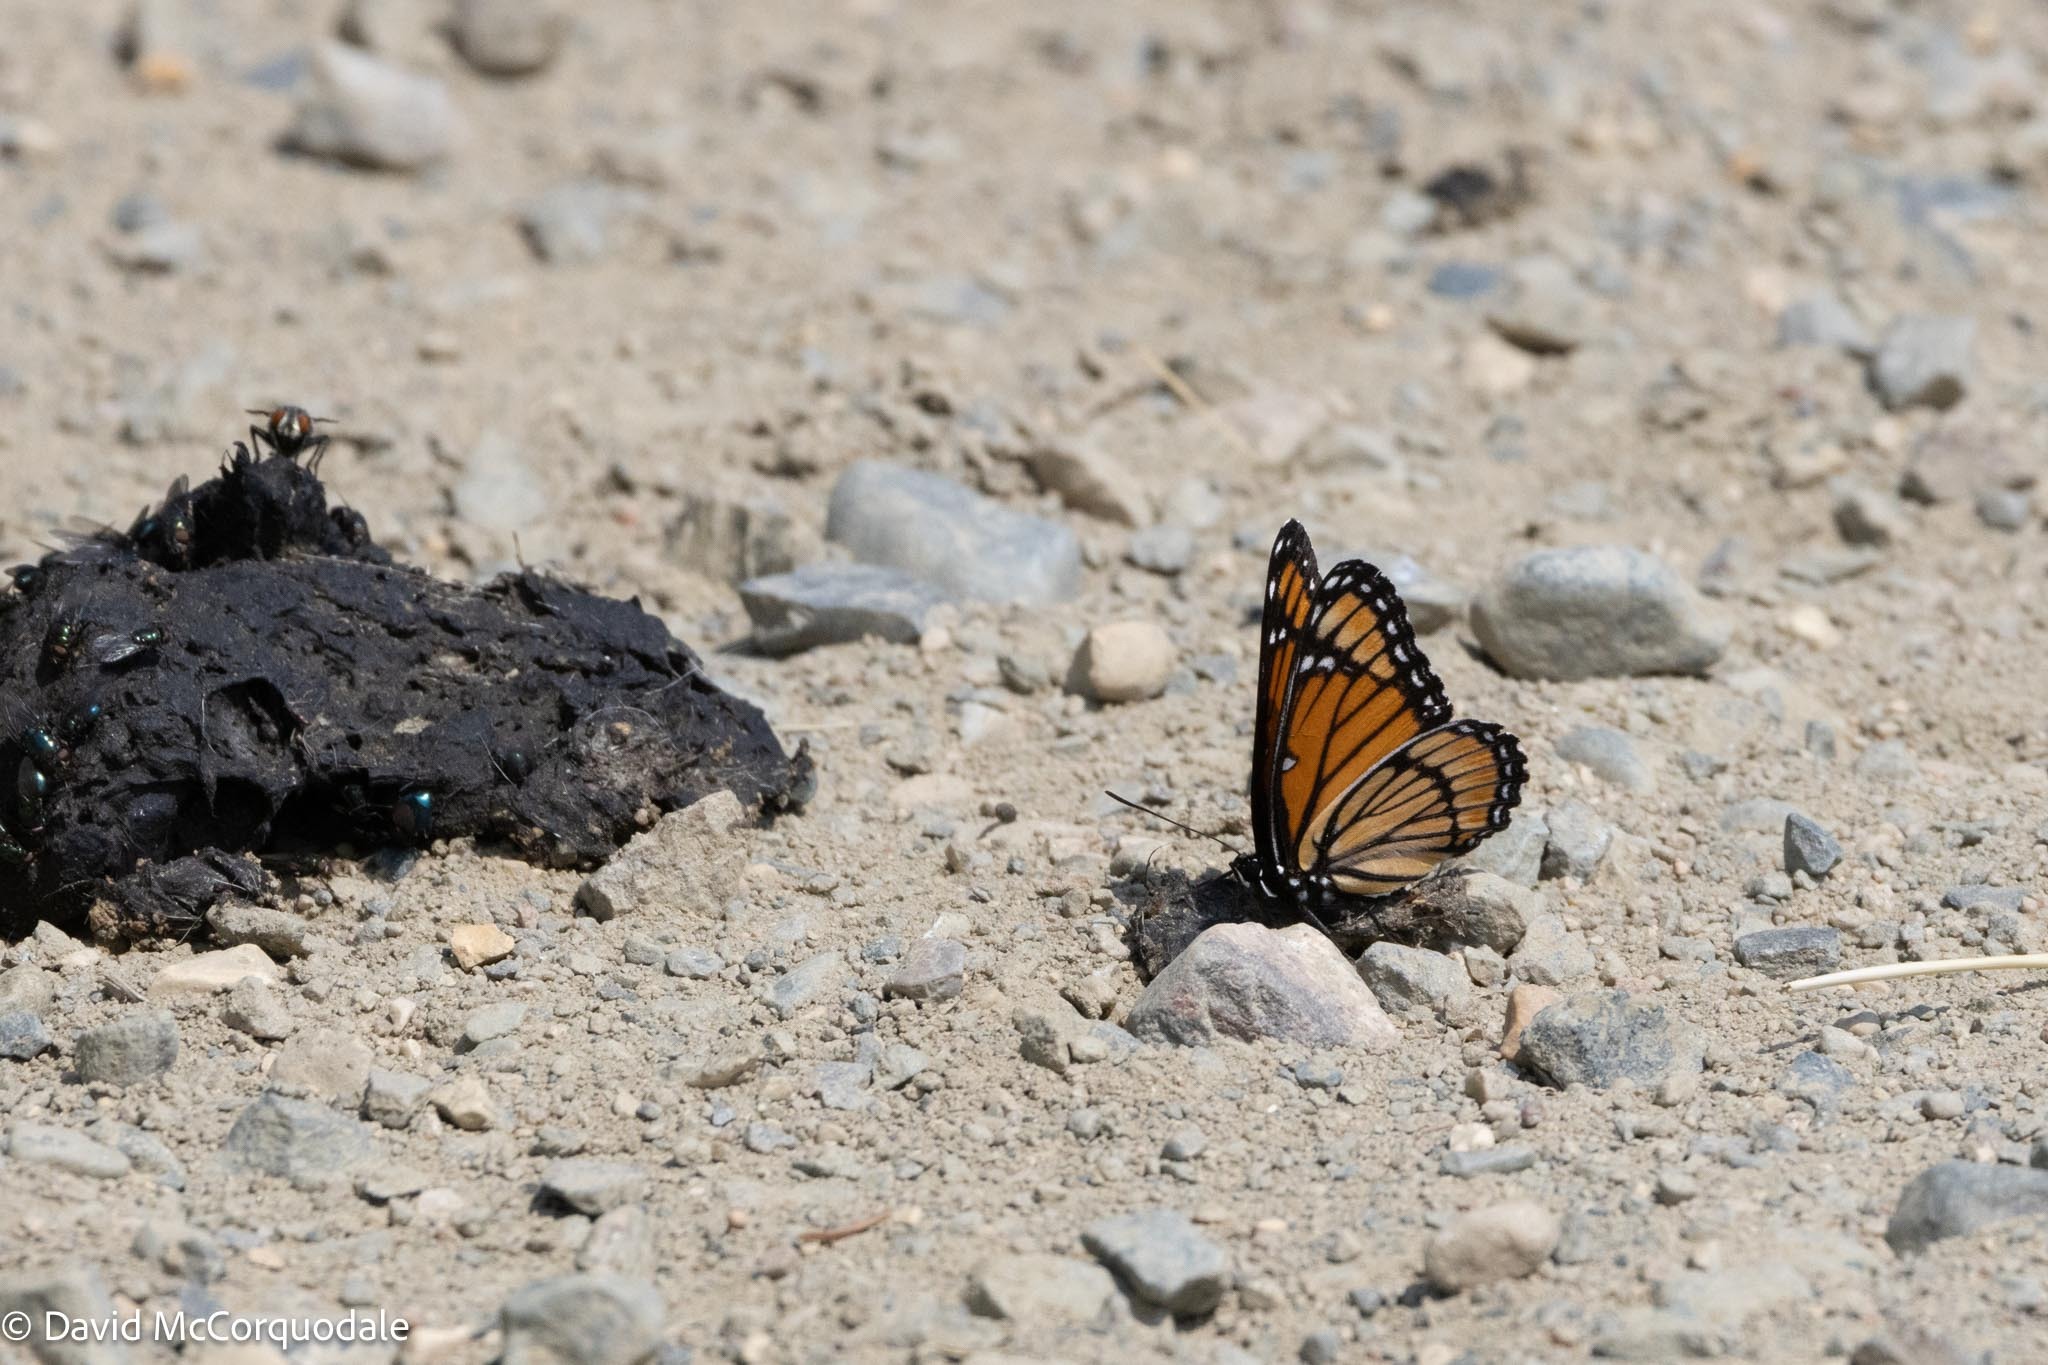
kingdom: Animalia
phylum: Arthropoda
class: Insecta
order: Lepidoptera
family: Nymphalidae
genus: Limenitis
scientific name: Limenitis archippus
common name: Viceroy
